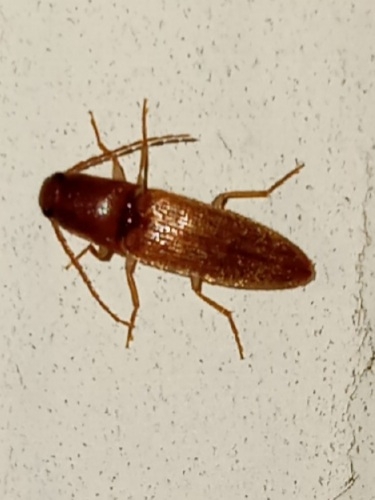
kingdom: Animalia
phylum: Arthropoda
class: Insecta
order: Coleoptera
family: Elateridae
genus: Anchastus
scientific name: Anchastus fumicollis
